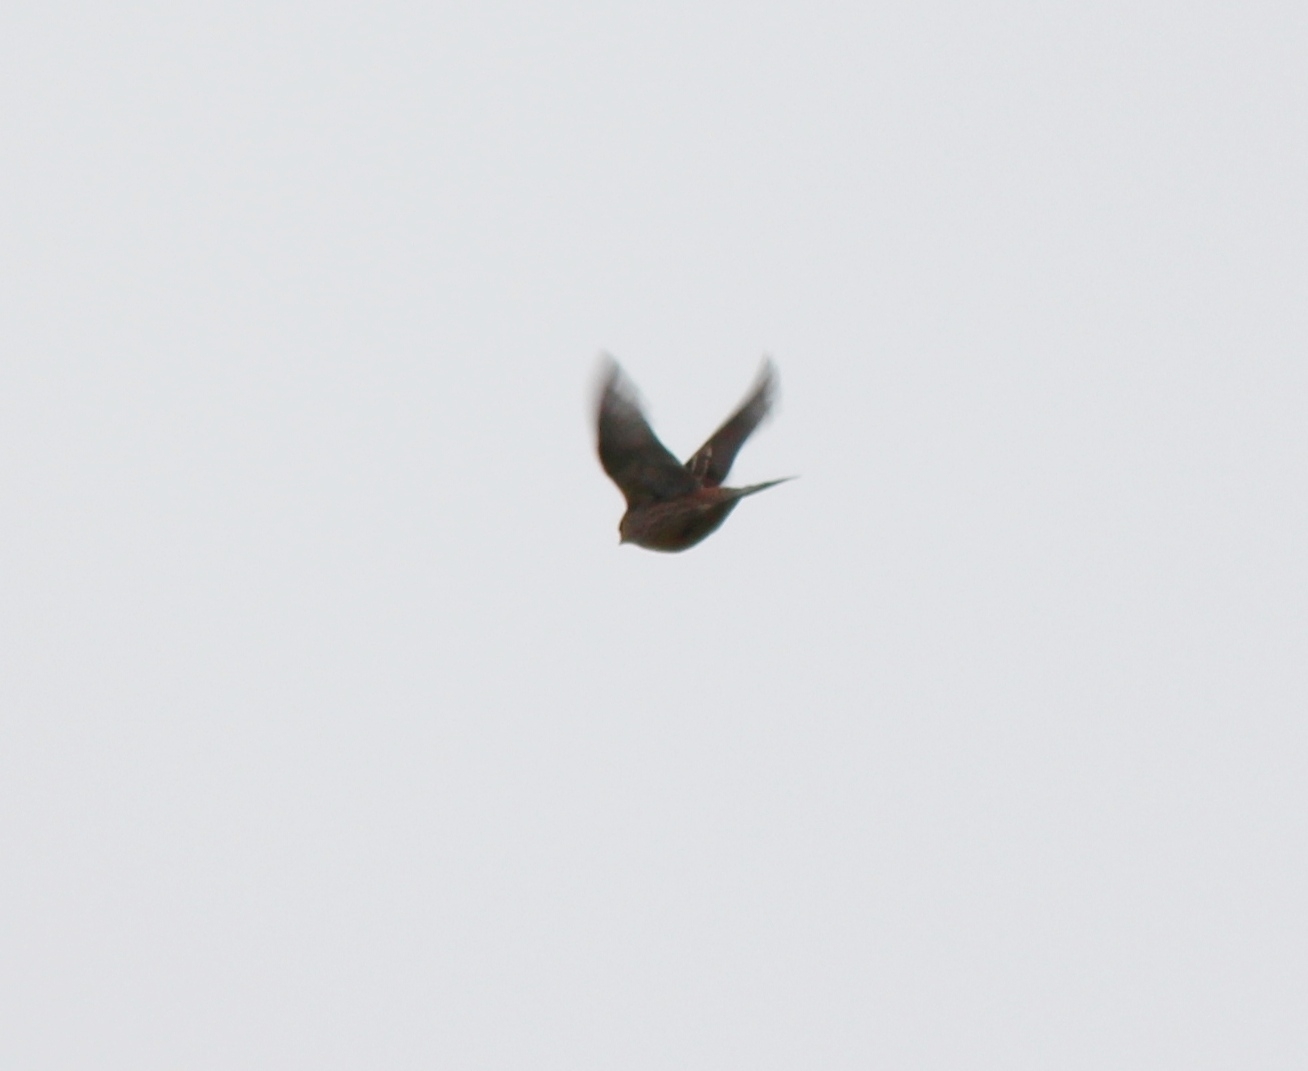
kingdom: Animalia
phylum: Chordata
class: Aves
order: Passeriformes
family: Emberizidae
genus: Emberiza
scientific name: Emberiza
